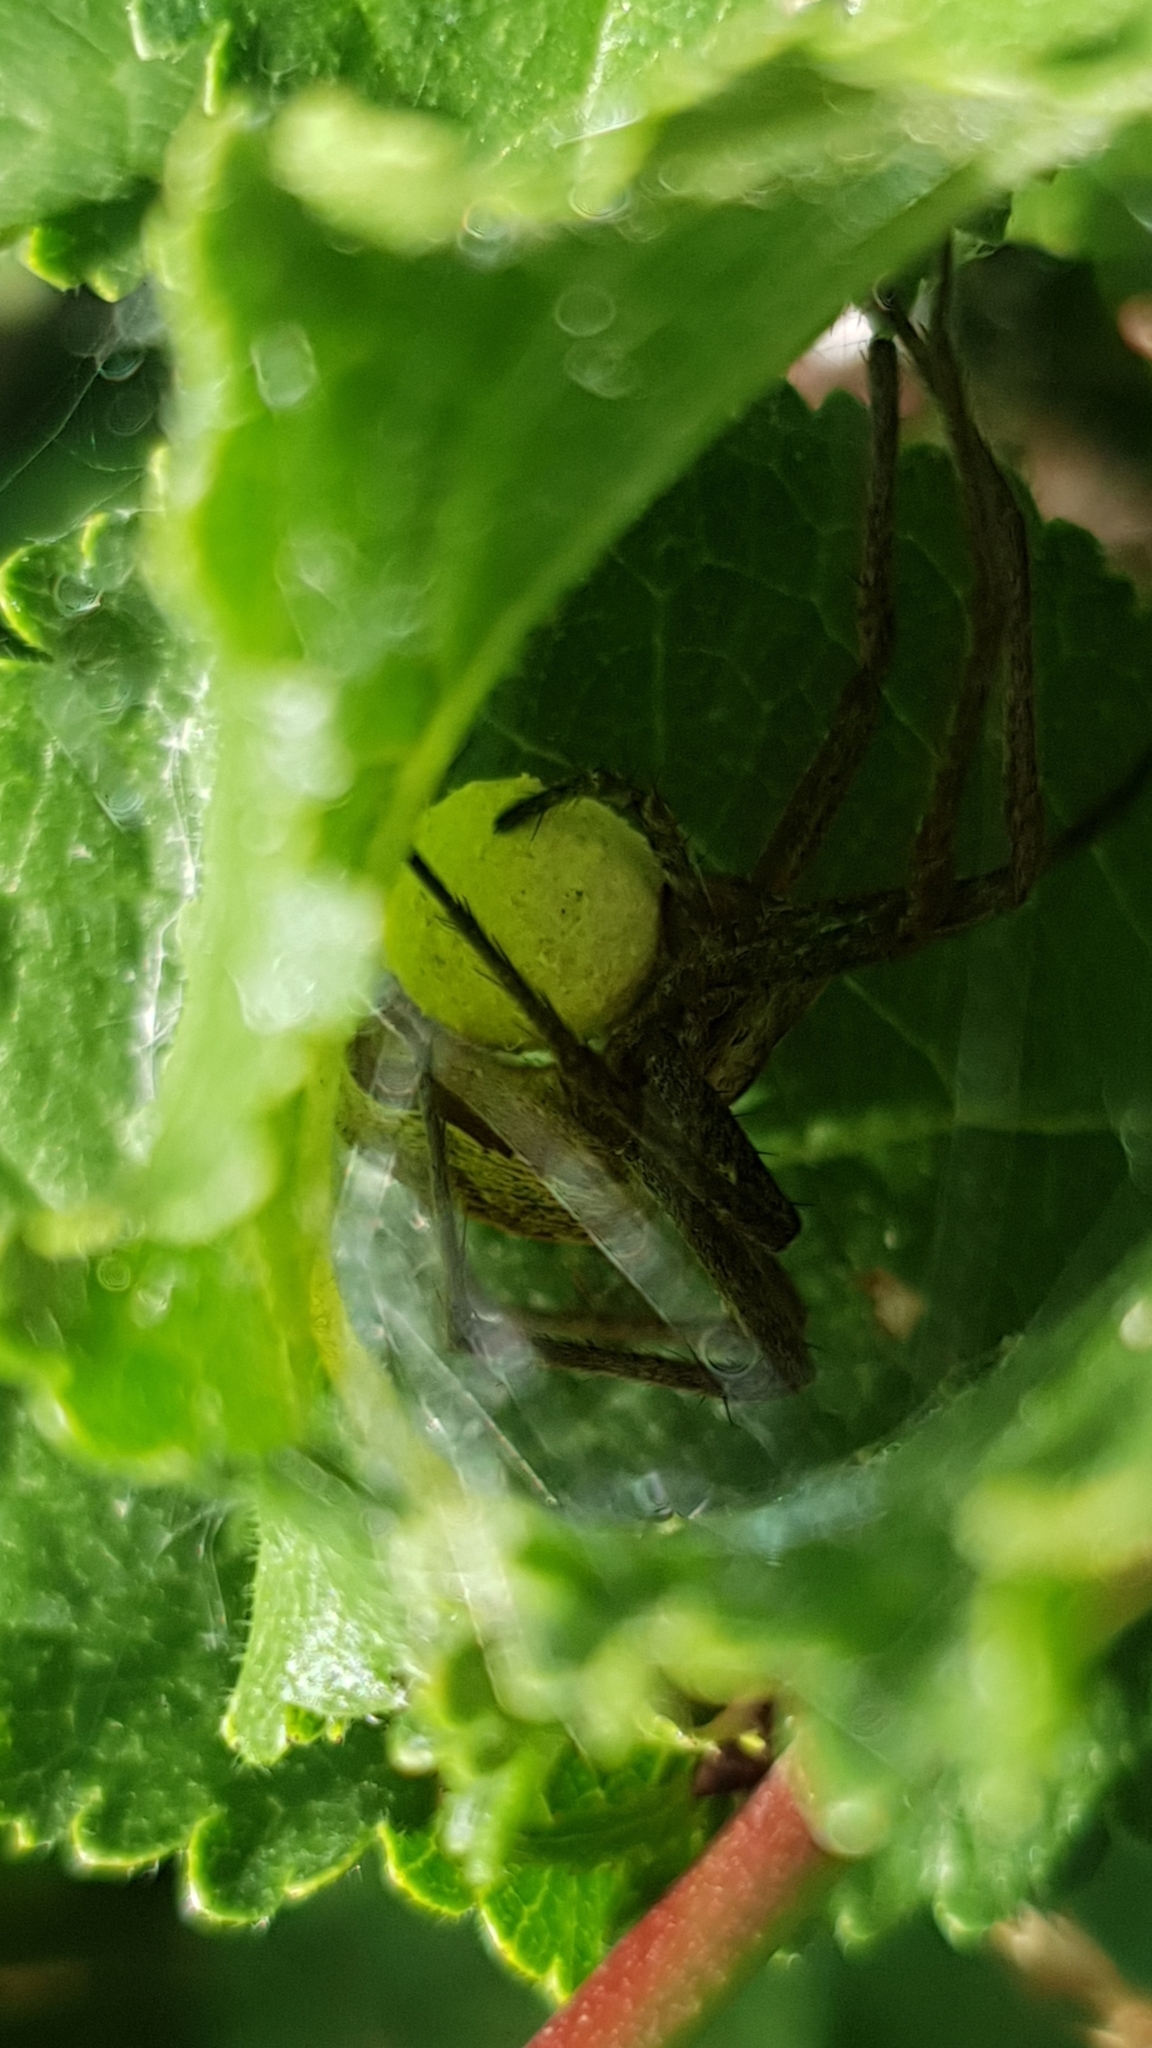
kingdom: Animalia
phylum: Arthropoda
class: Arachnida
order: Araneae
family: Pisauridae
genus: Pisaura
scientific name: Pisaura mirabilis
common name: Tent spider
